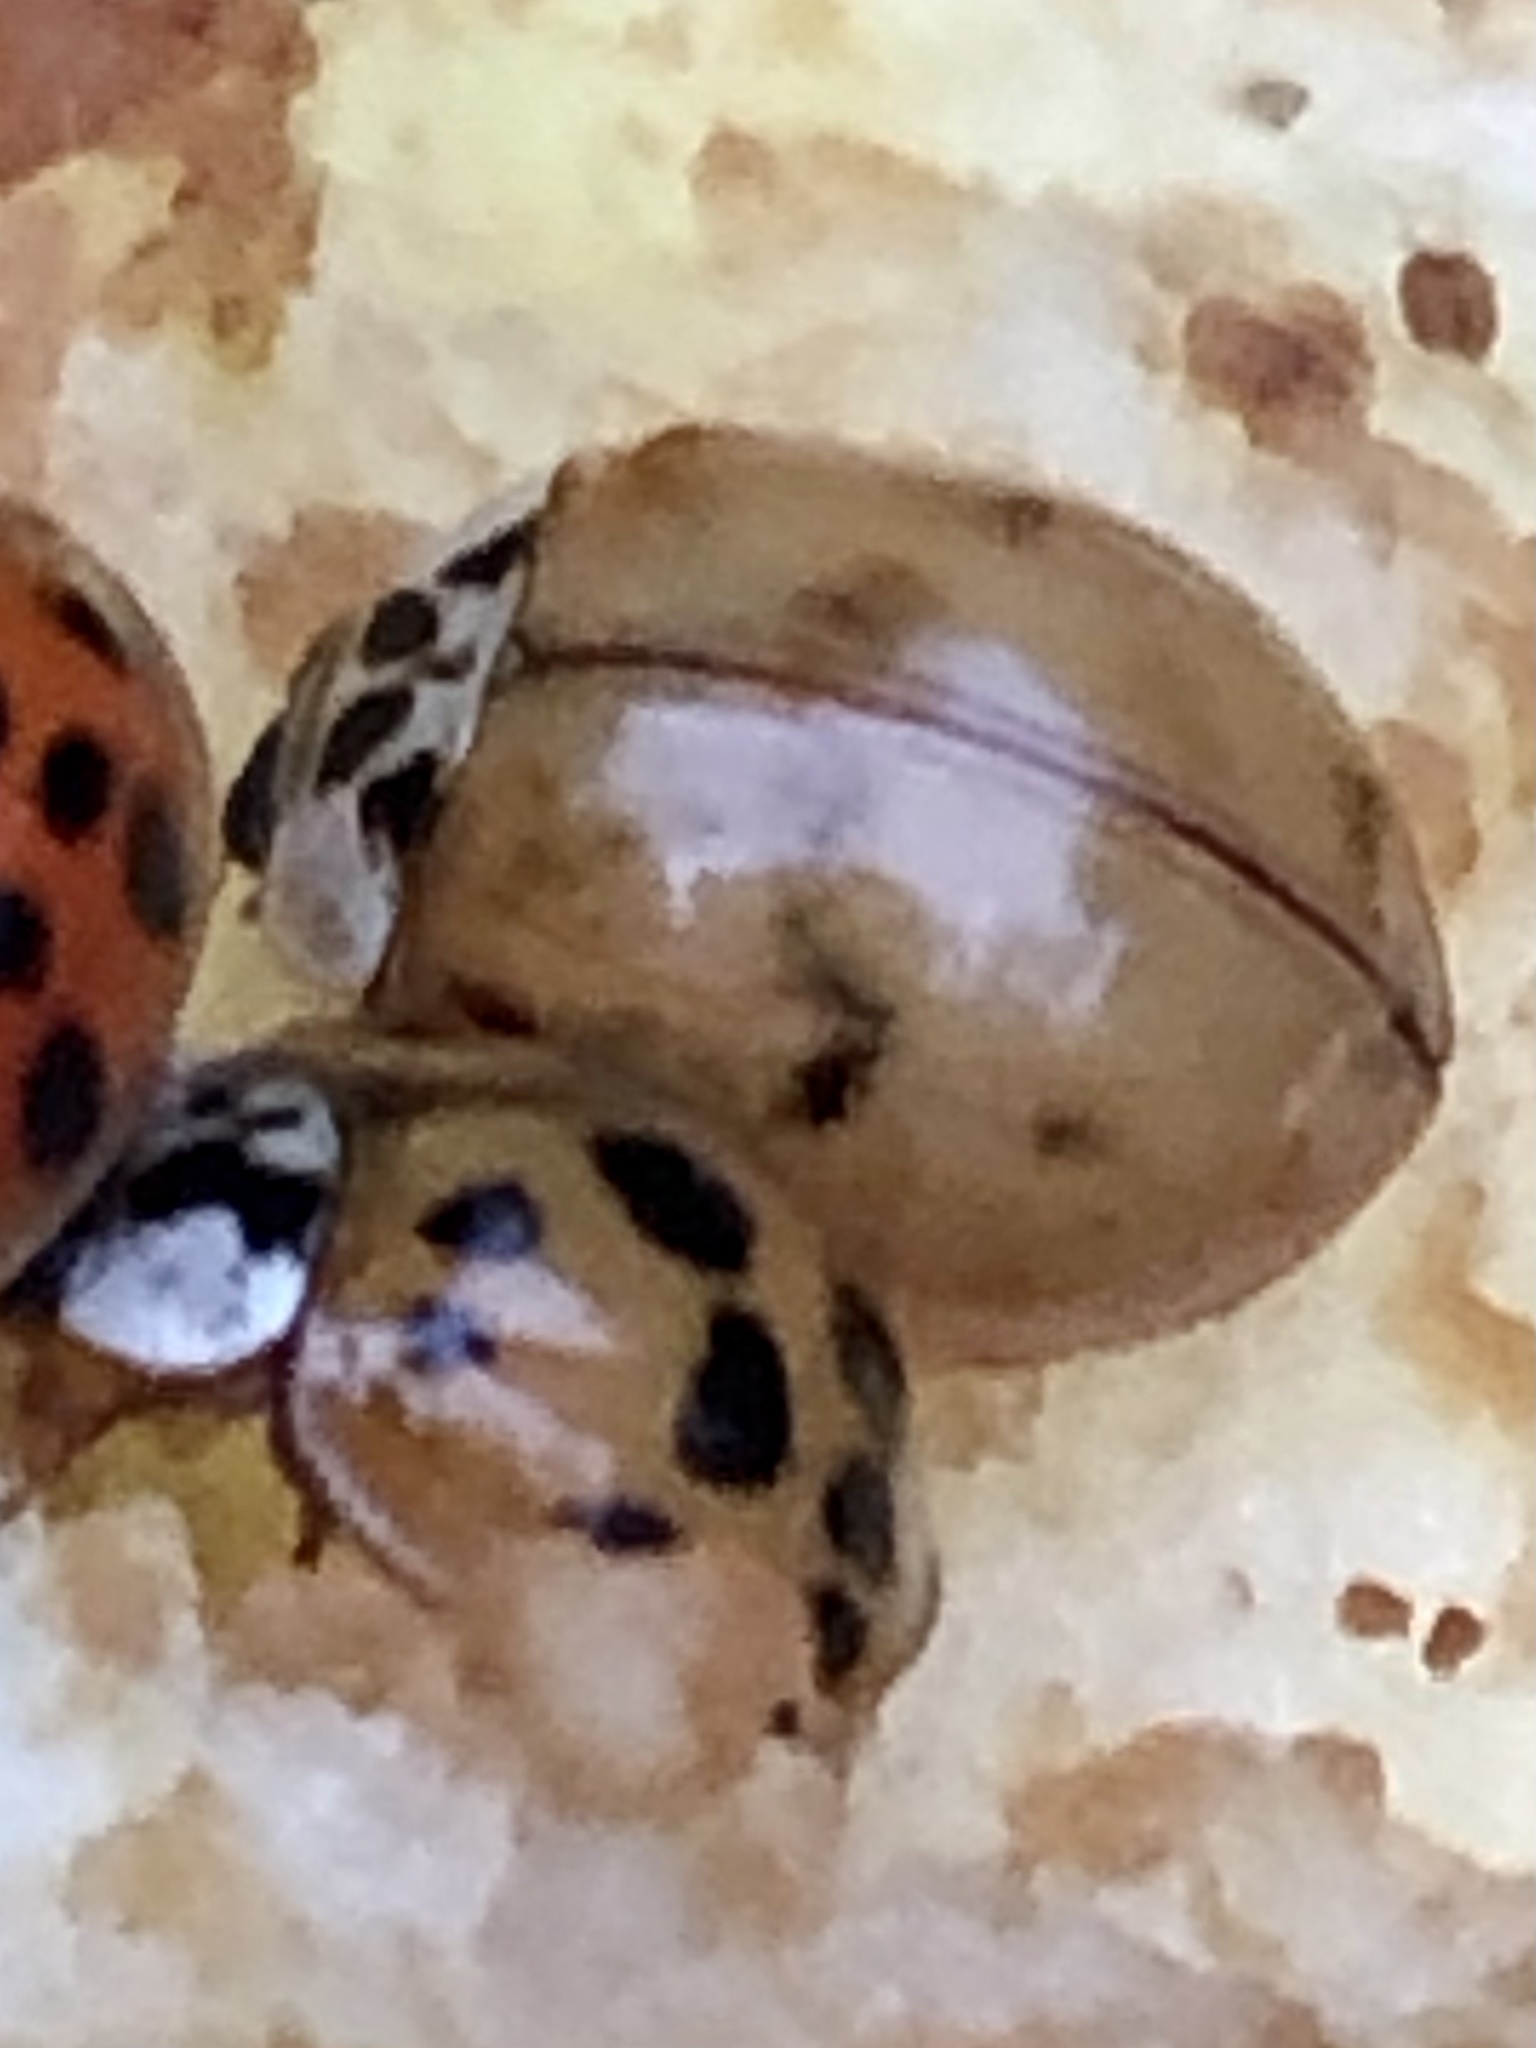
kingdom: Animalia
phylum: Arthropoda
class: Insecta
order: Coleoptera
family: Coccinellidae
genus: Harmonia
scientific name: Harmonia axyridis
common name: Harlequin ladybird
